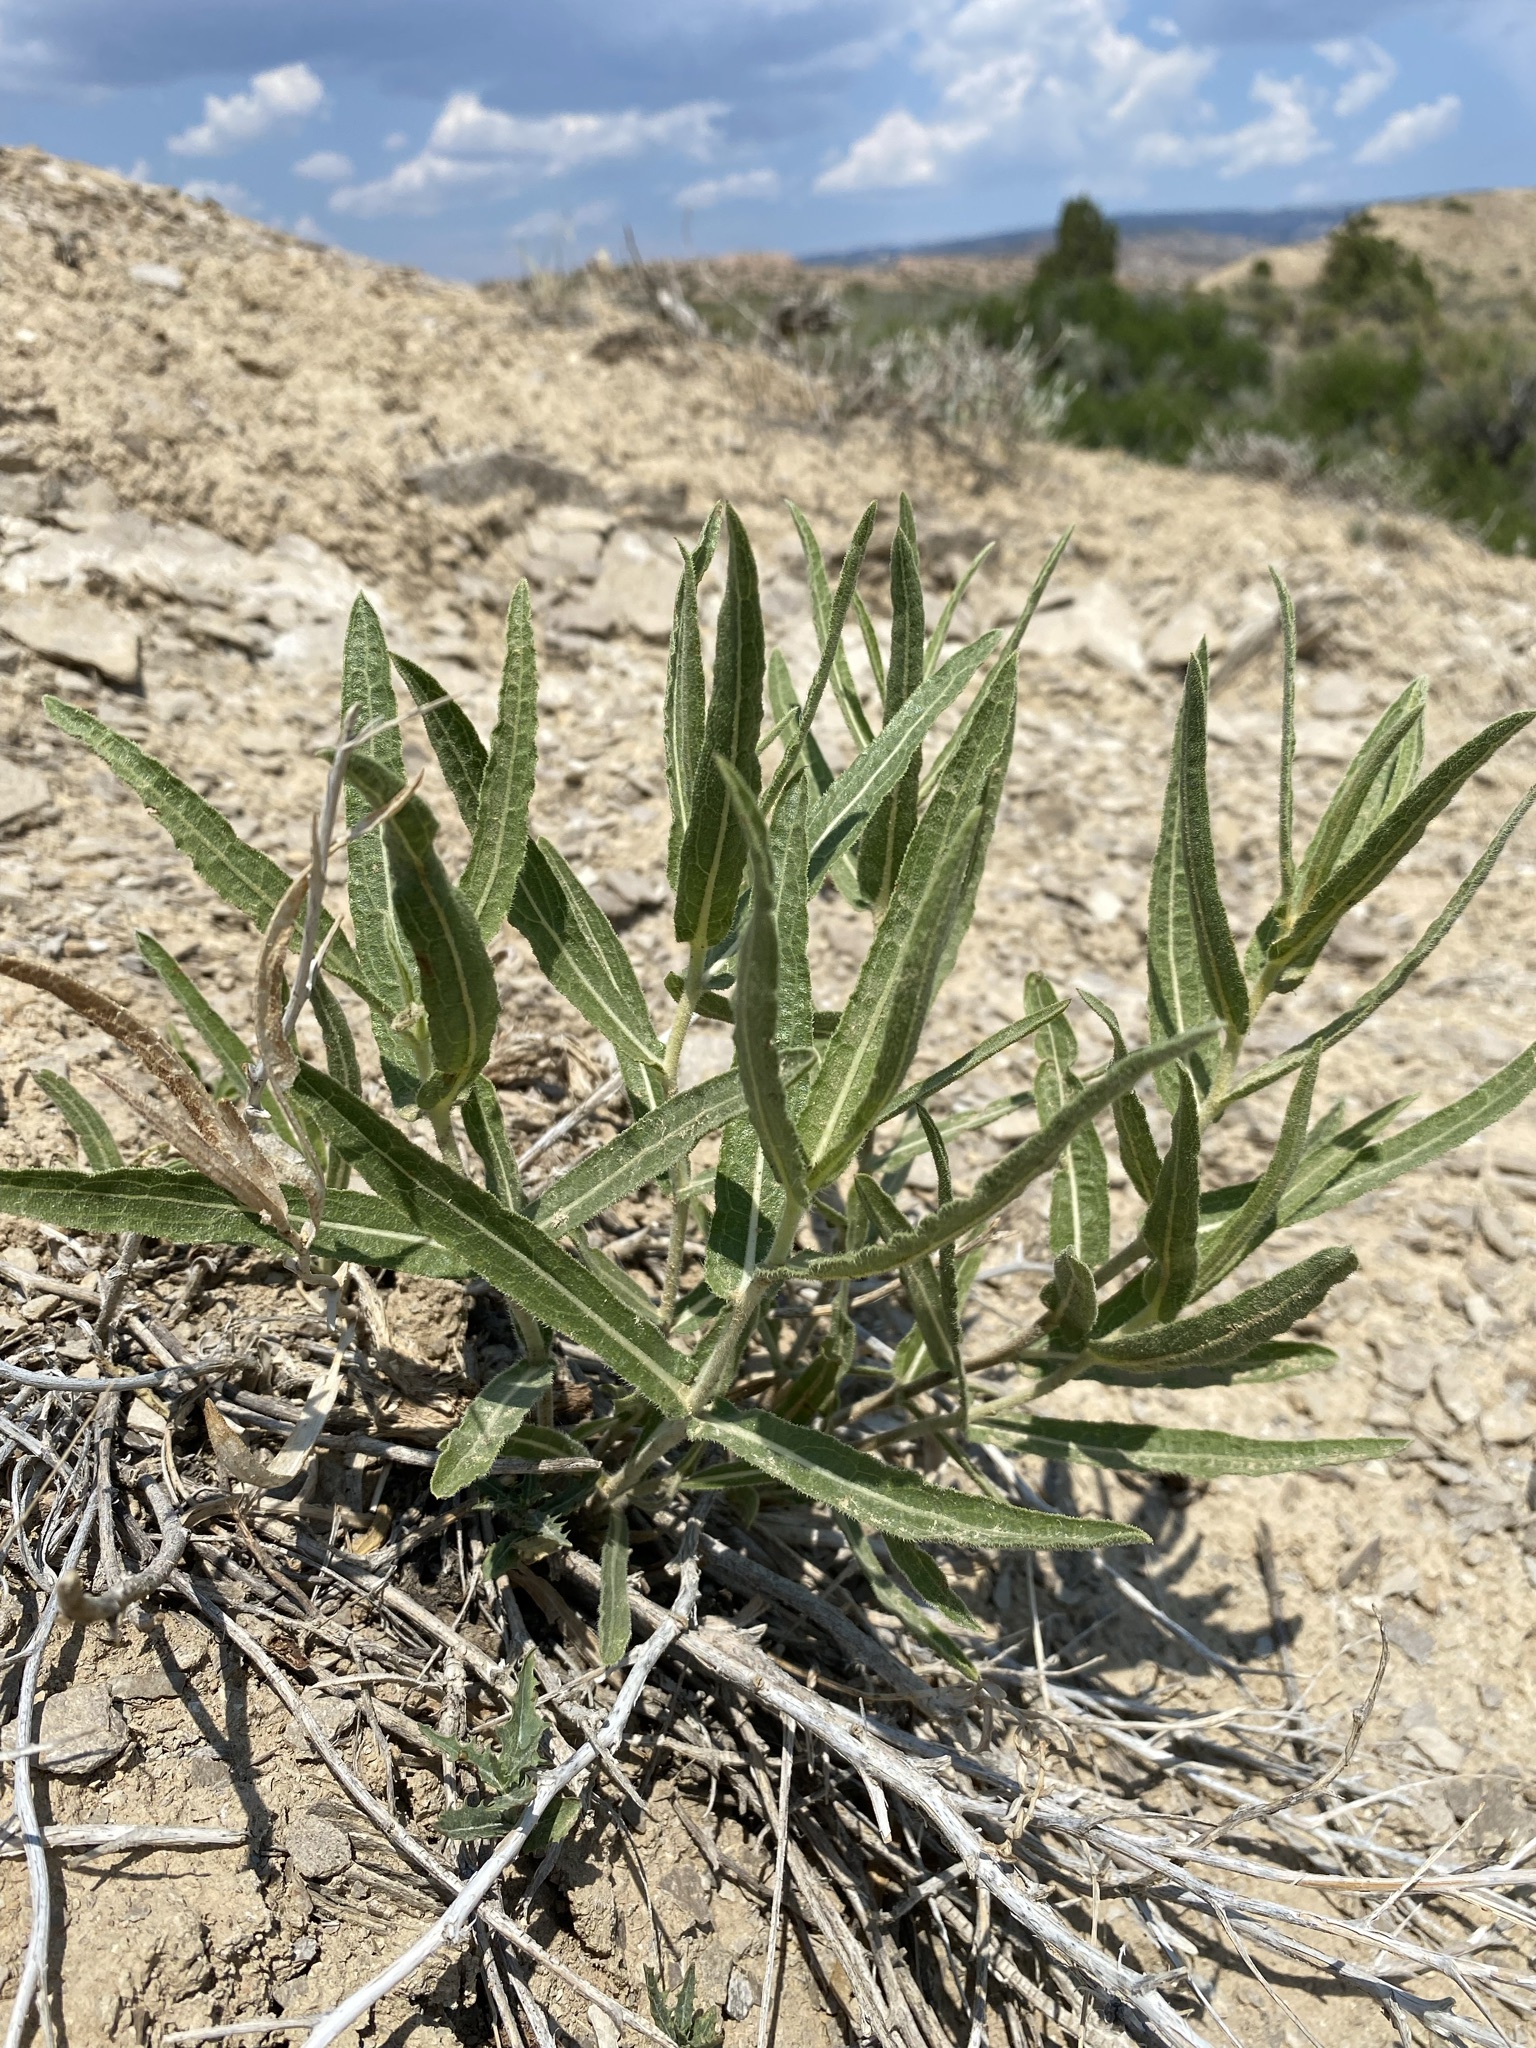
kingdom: Plantae
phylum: Tracheophyta
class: Magnoliopsida
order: Asterales
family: Asteraceae
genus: Scabrethia
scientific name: Scabrethia scabra
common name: Rough mules's-ears
